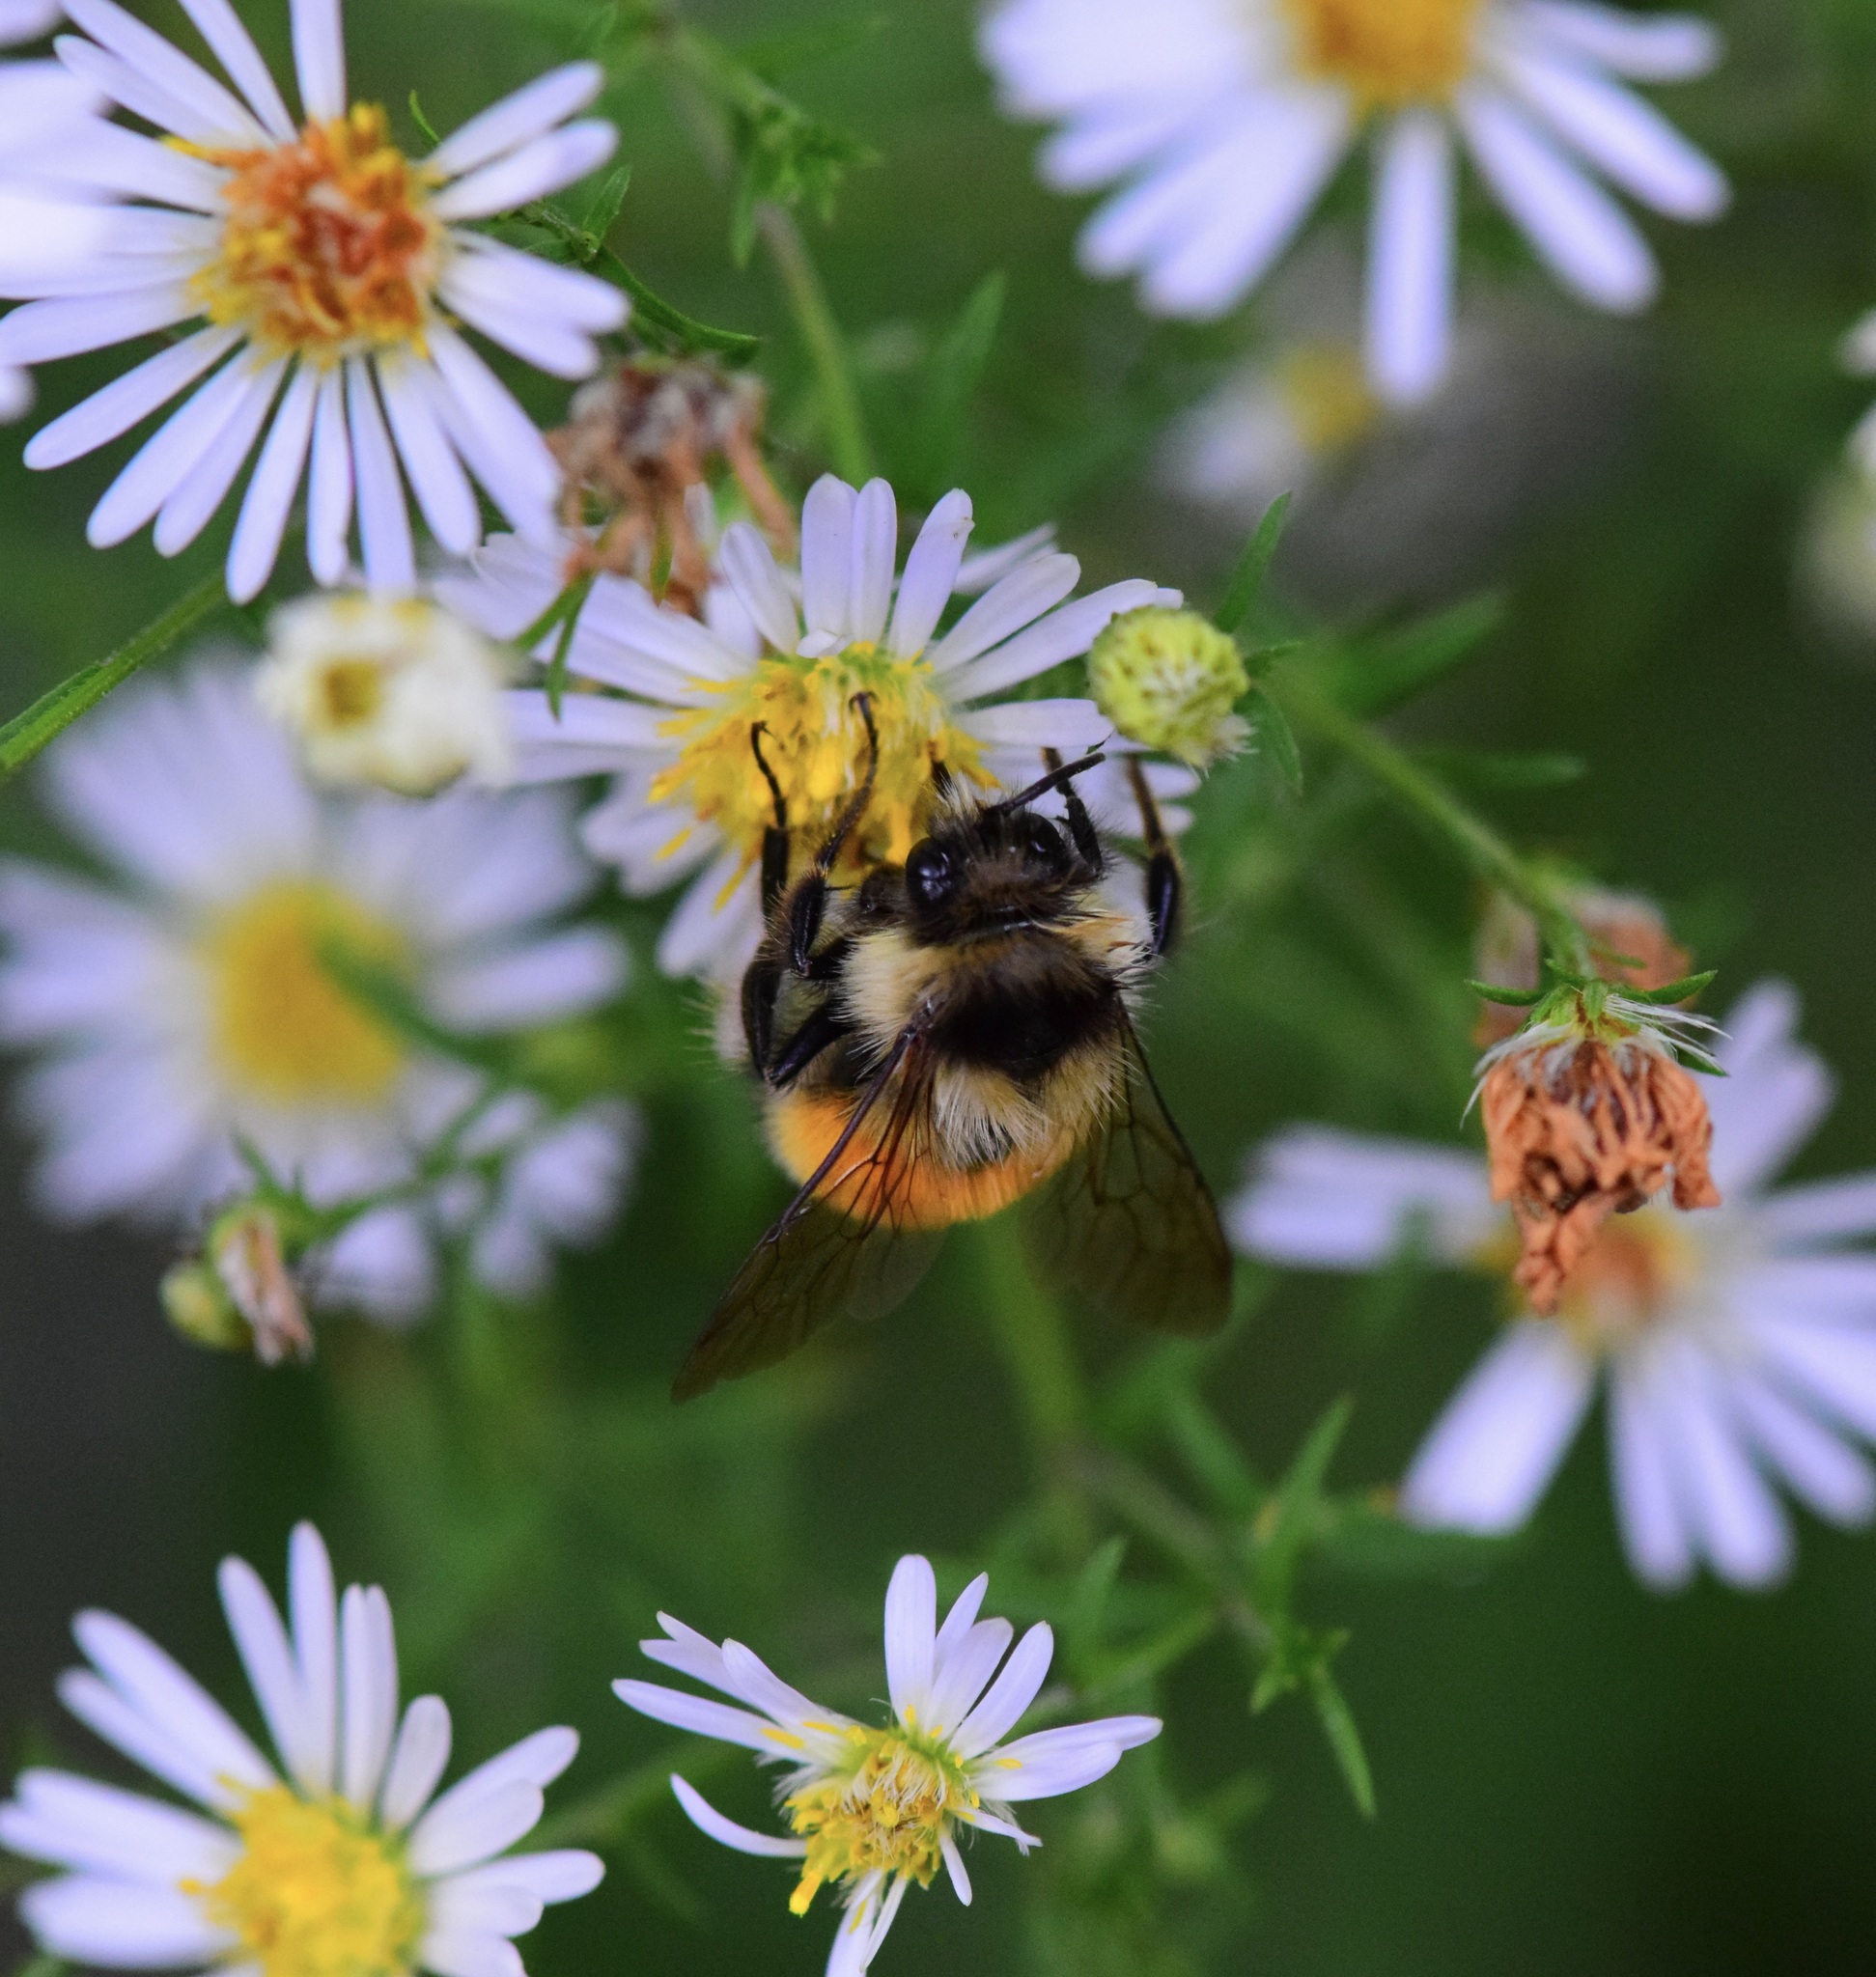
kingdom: Animalia
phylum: Arthropoda
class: Insecta
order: Hymenoptera
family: Apidae
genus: Bombus
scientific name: Bombus ternarius
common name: Tri-colored bumble bee
